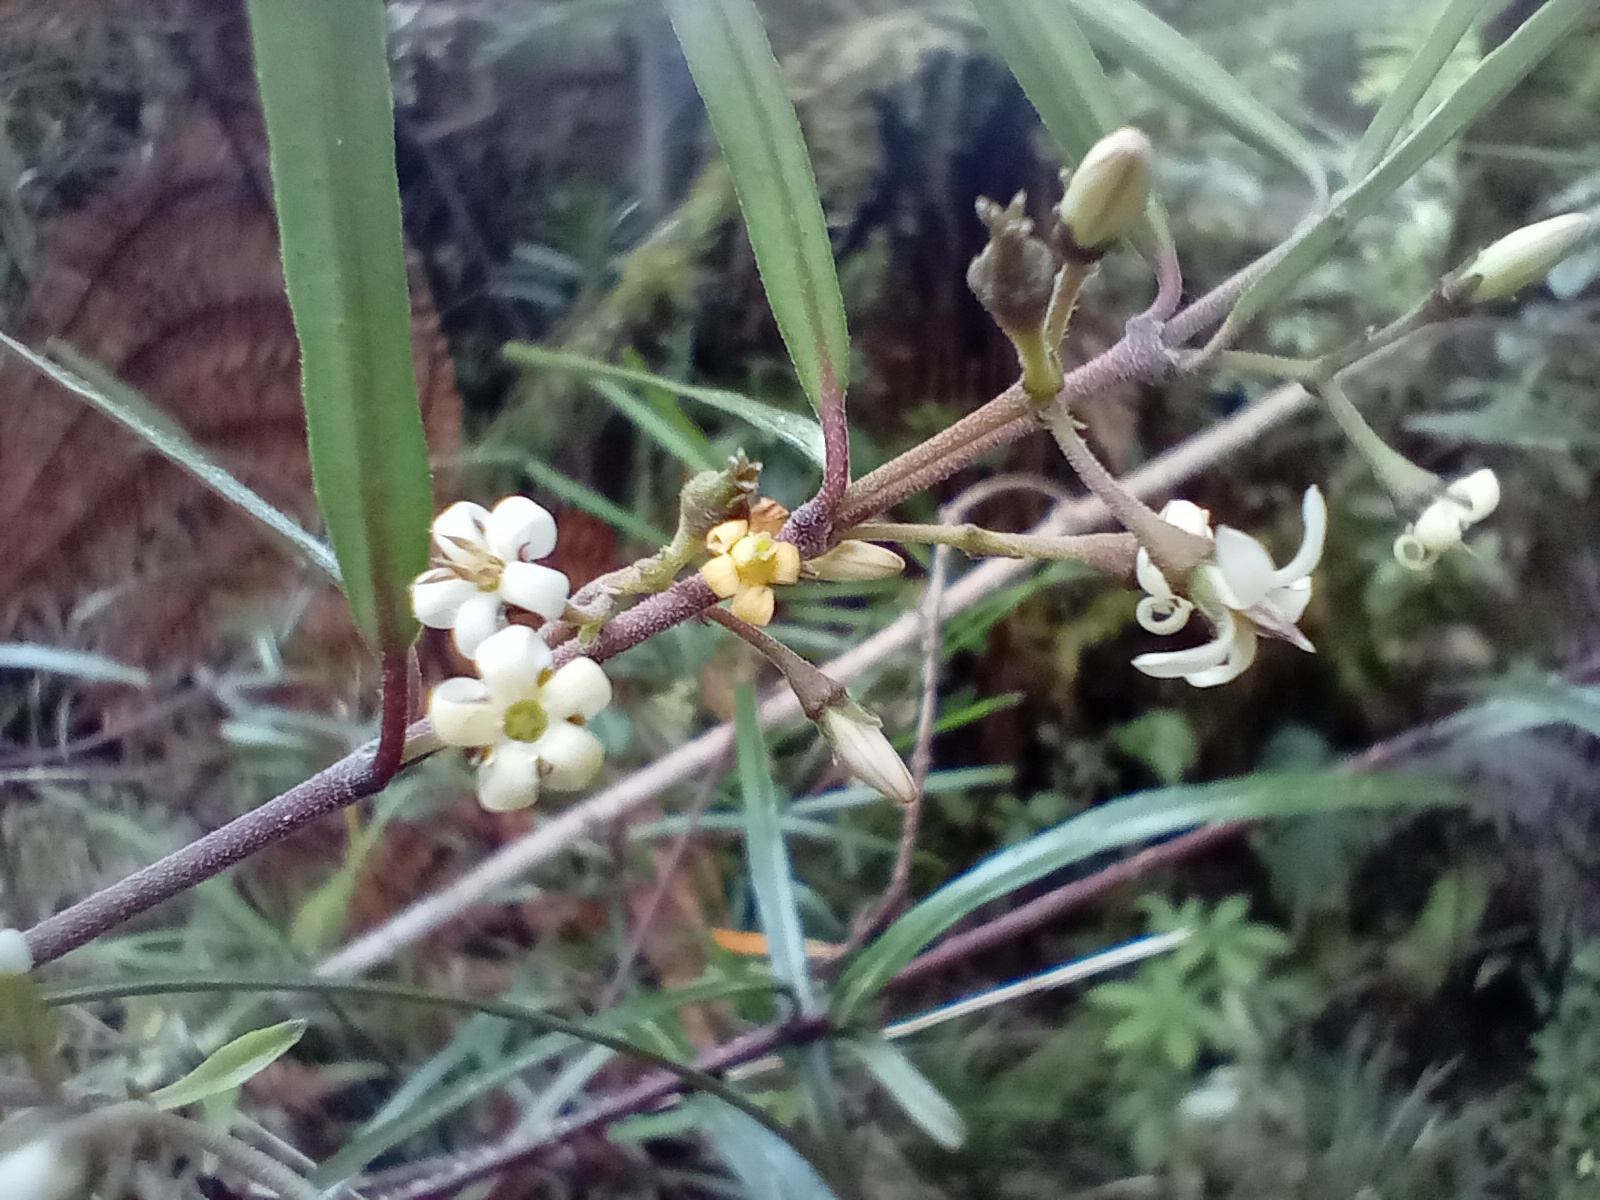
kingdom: Plantae
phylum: Tracheophyta
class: Magnoliopsida
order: Gentianales
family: Apocynaceae
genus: Parsonsia
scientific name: Parsonsia capsularis
